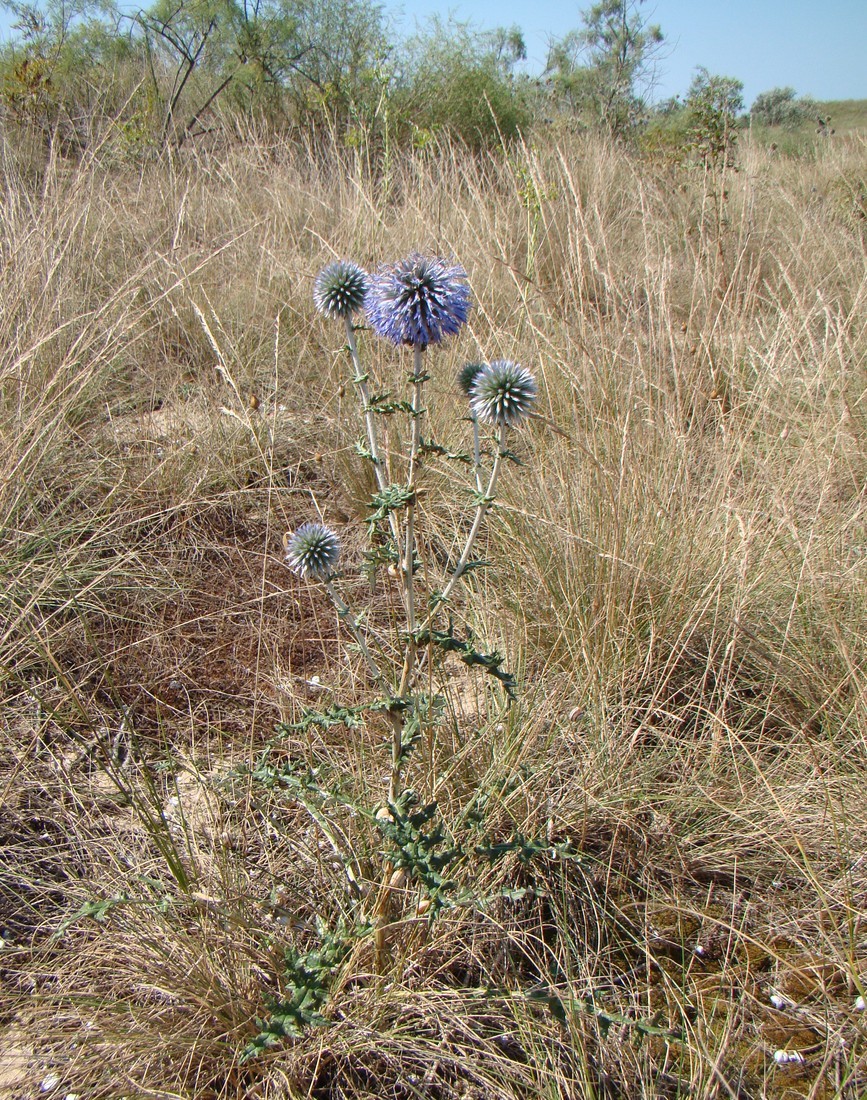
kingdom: Plantae
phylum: Tracheophyta
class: Magnoliopsida
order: Asterales
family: Asteraceae
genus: Echinops
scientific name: Echinops ritro
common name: Globe thistle
